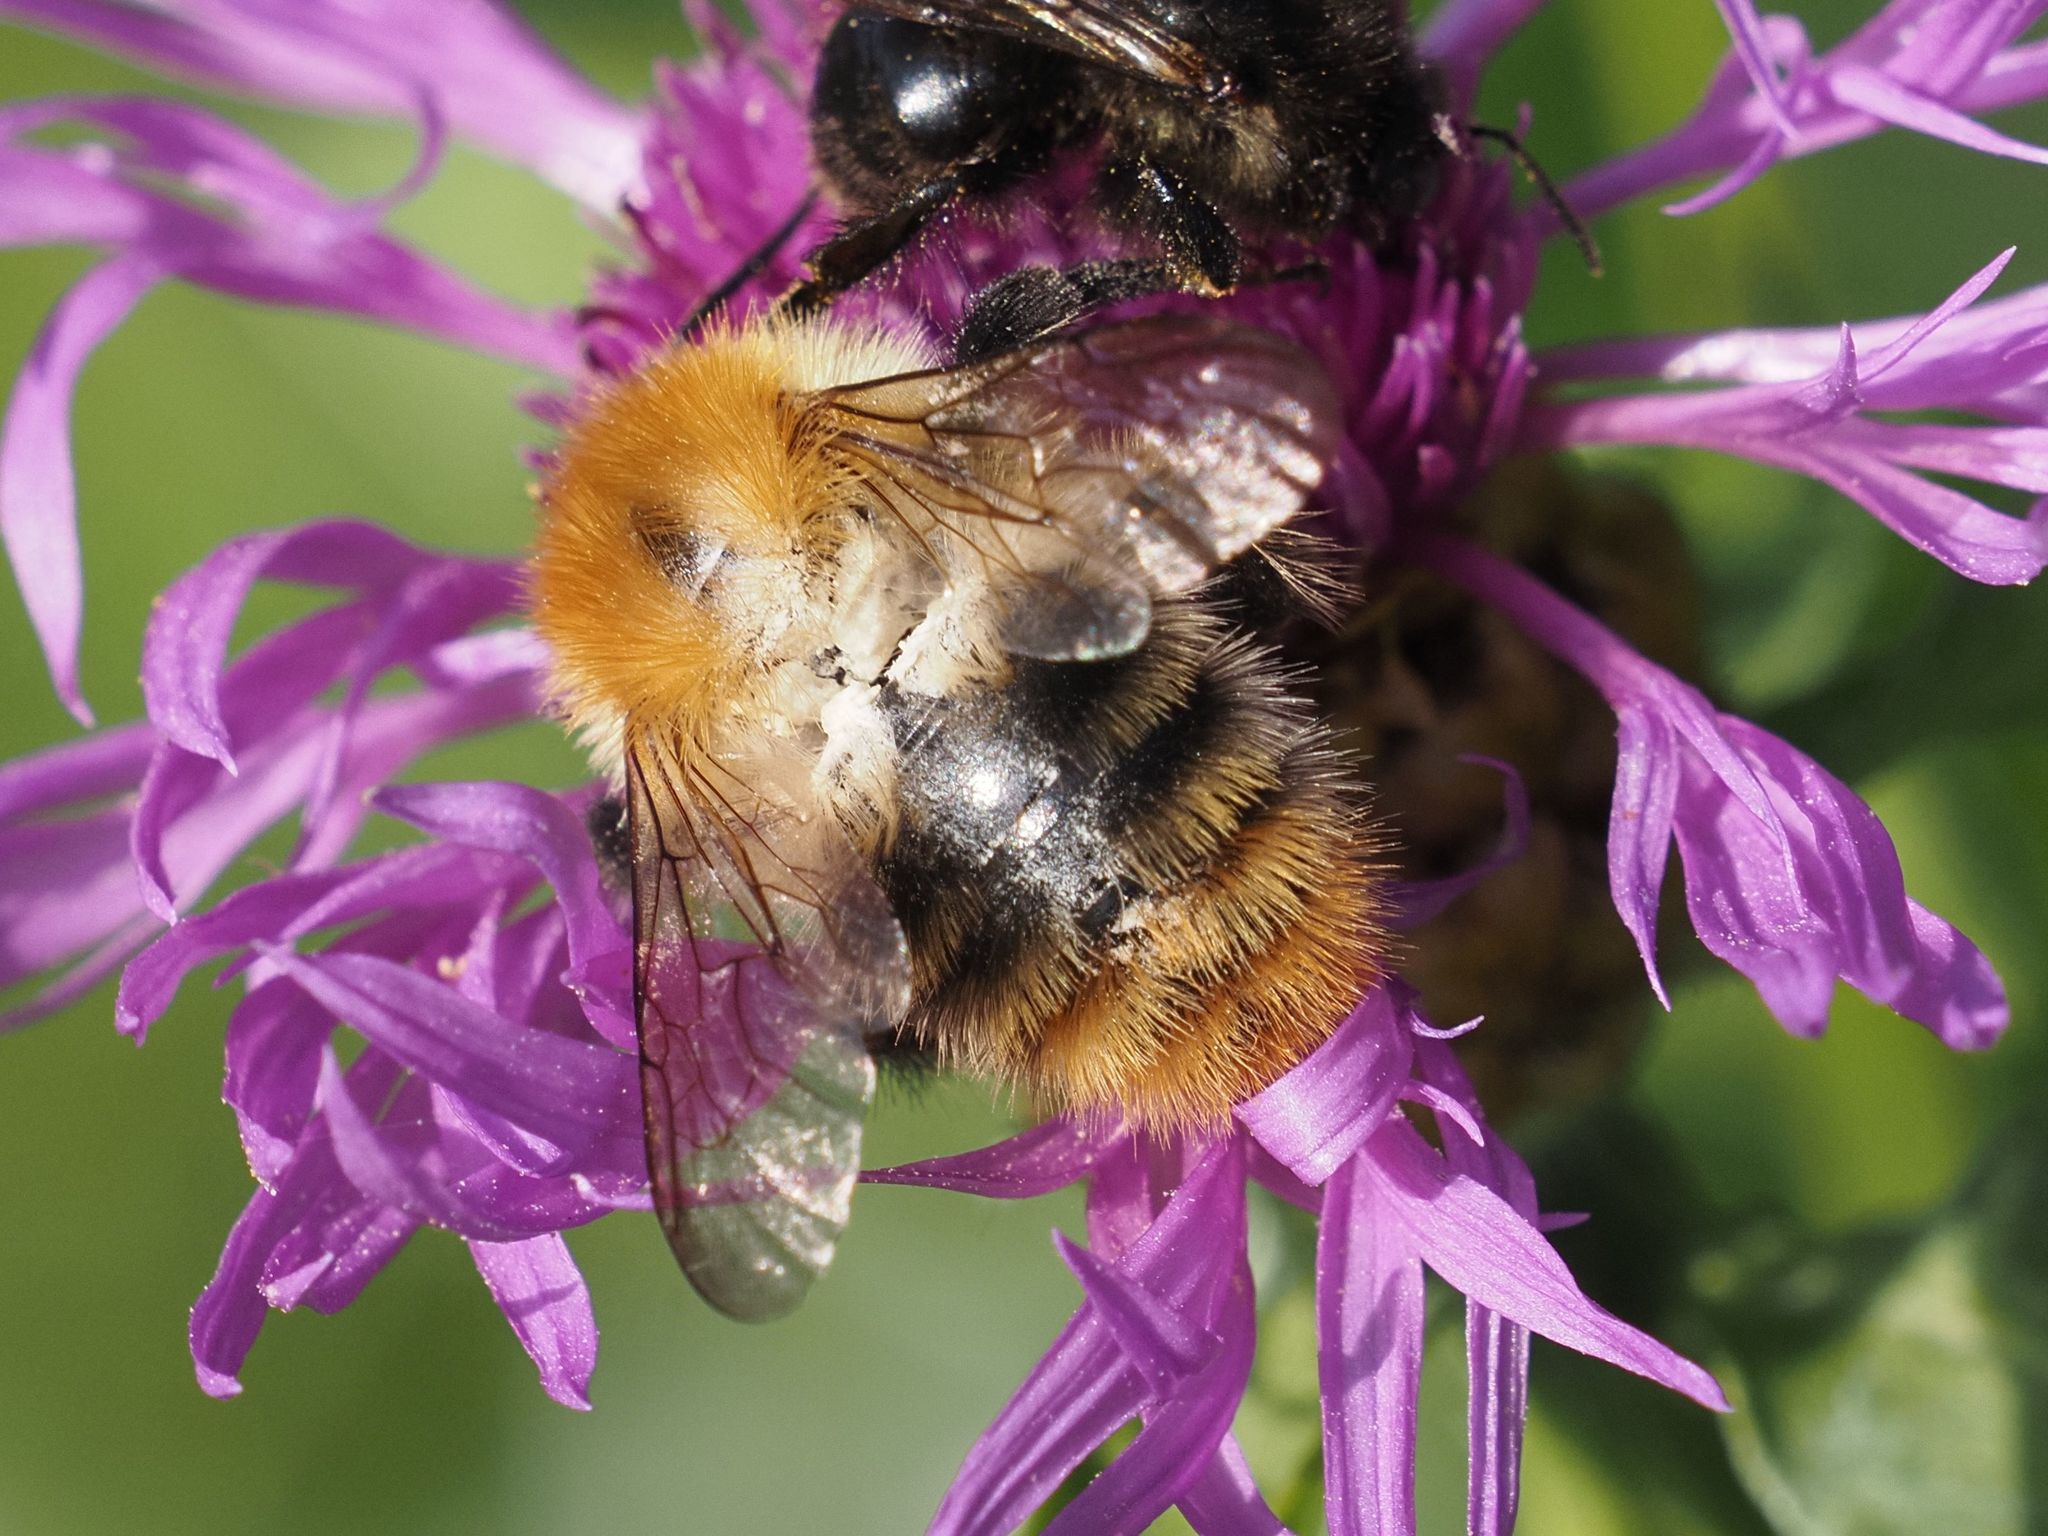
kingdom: Animalia
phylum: Arthropoda
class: Insecta
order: Hymenoptera
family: Apidae
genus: Bombus
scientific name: Bombus pascuorum
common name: Common carder bee
